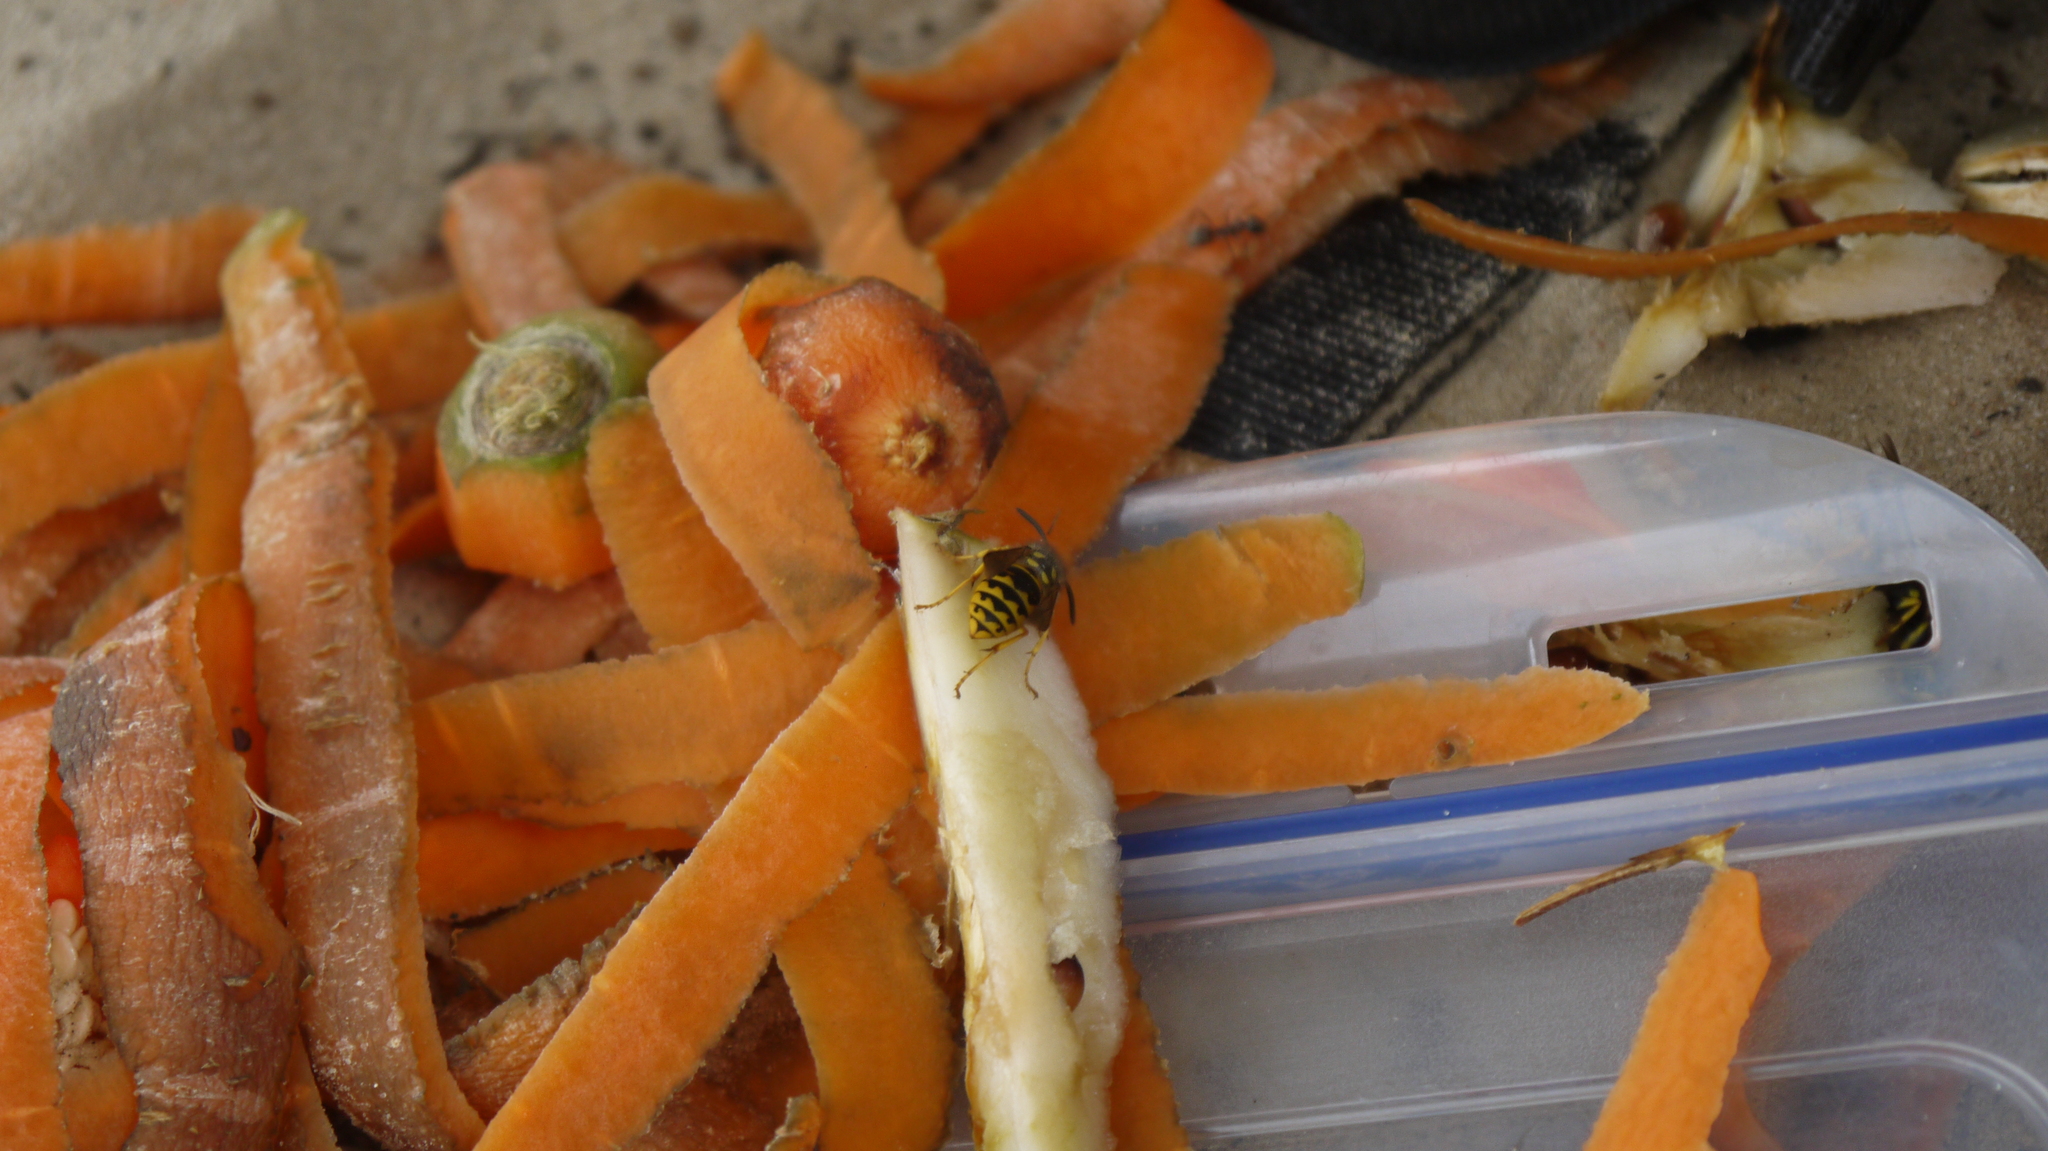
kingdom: Animalia
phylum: Arthropoda
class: Insecta
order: Hymenoptera
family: Vespidae
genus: Vespula
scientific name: Vespula germanica
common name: German wasp
